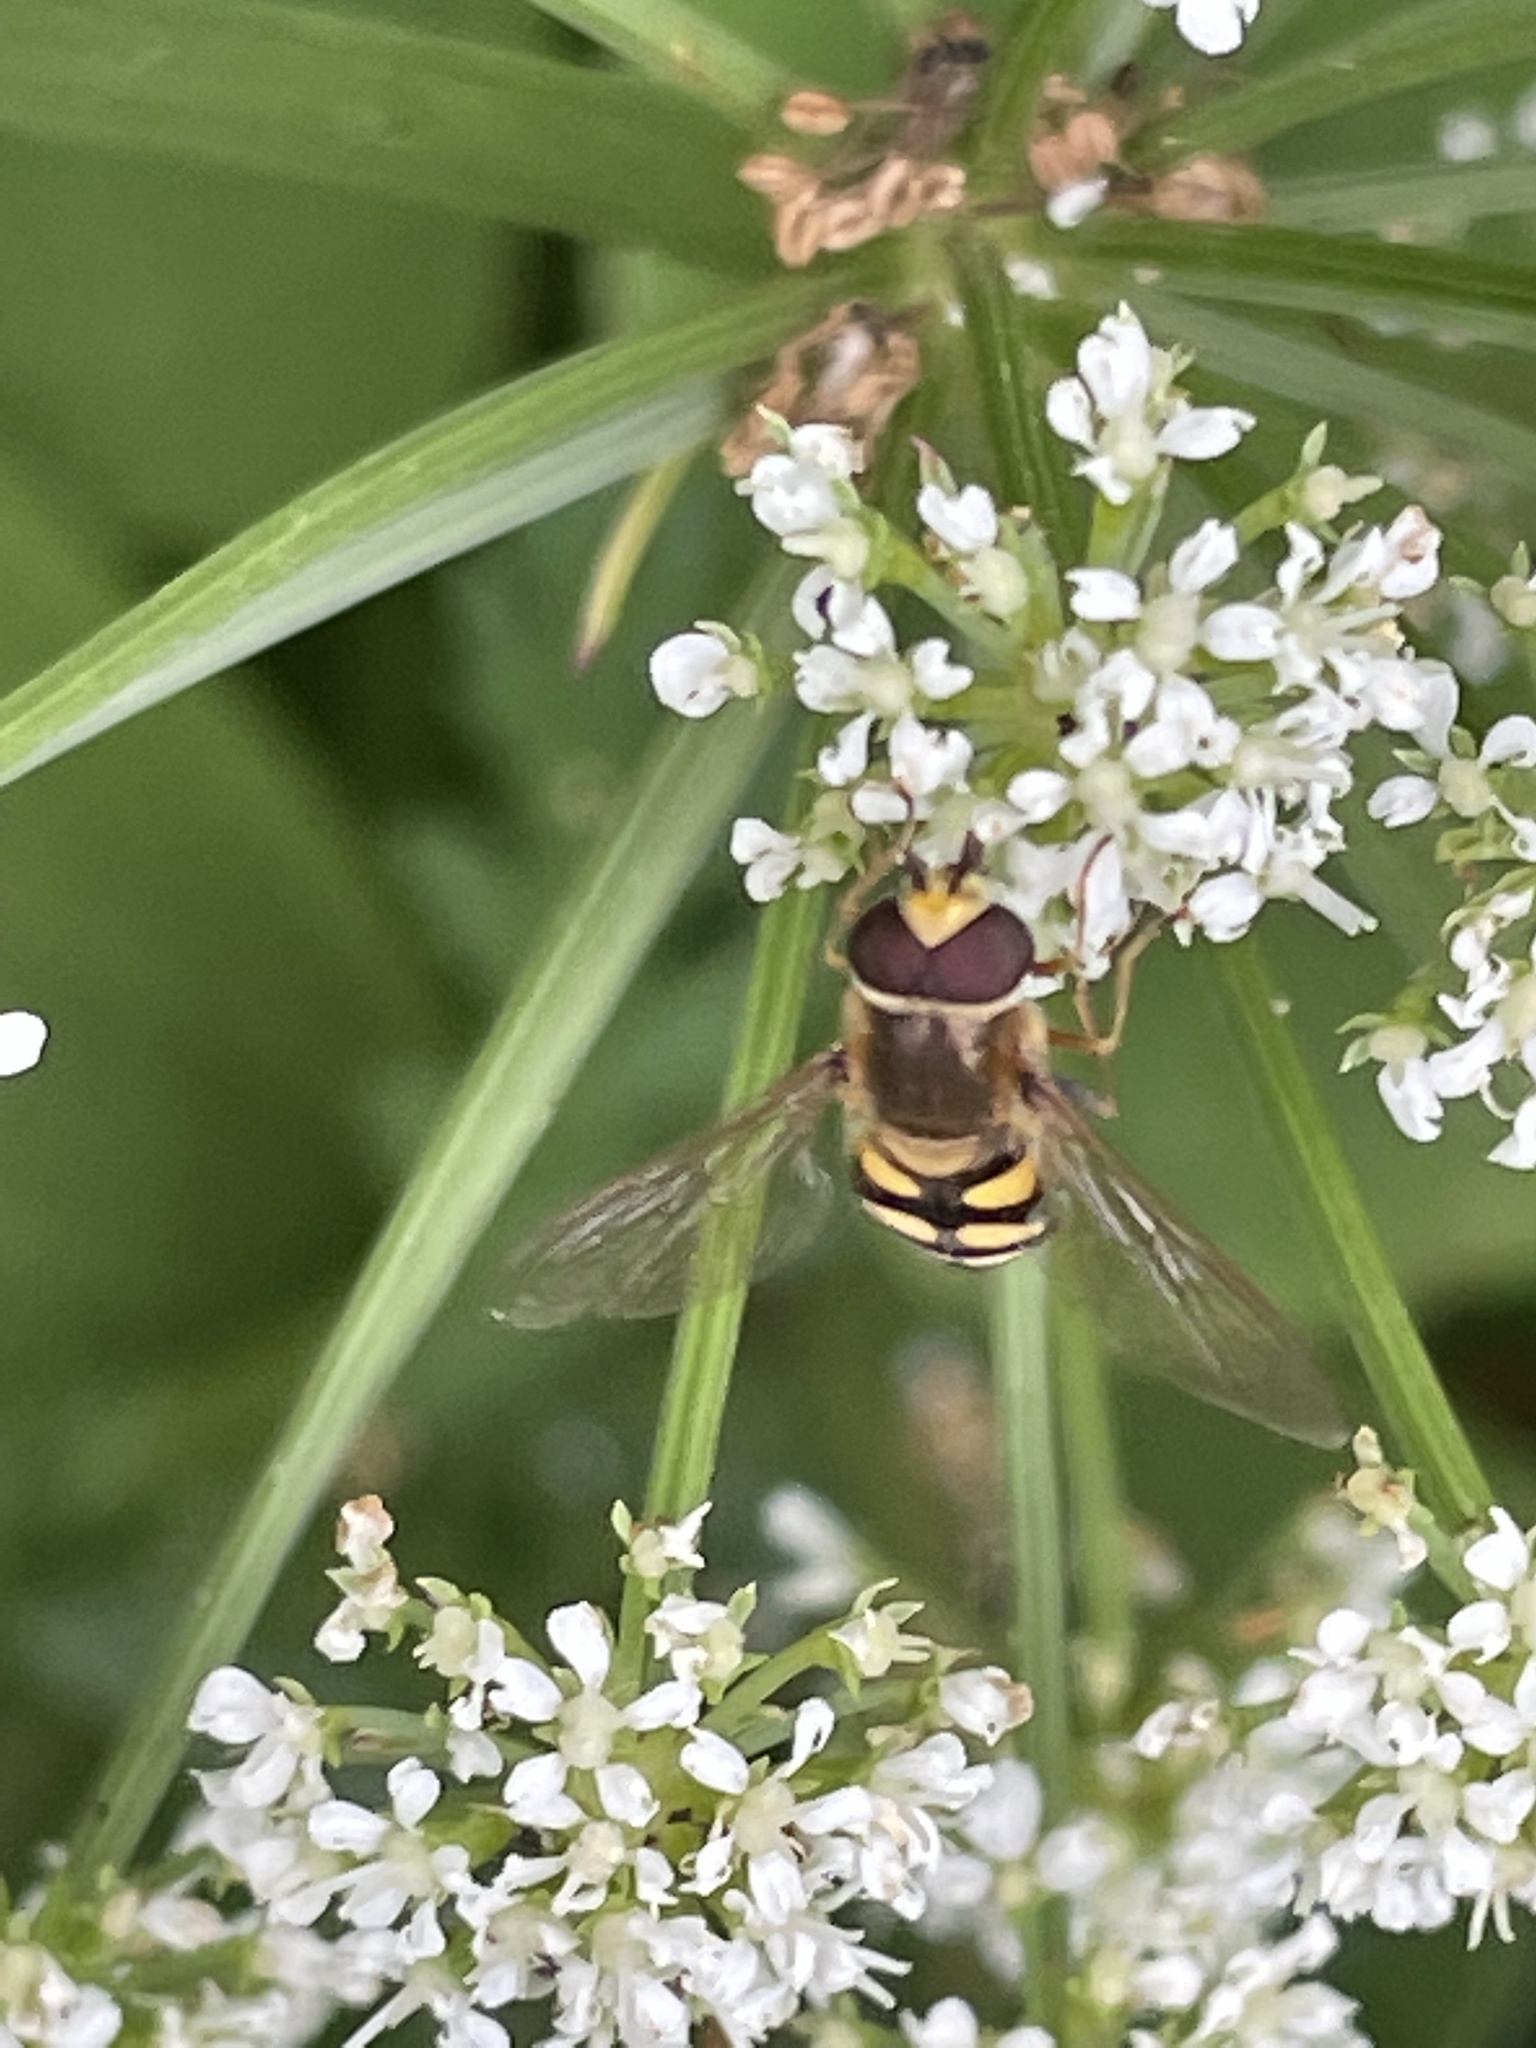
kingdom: Animalia
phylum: Arthropoda
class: Insecta
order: Diptera
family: Syrphidae
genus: Eupeodes
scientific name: Eupeodes corollae
